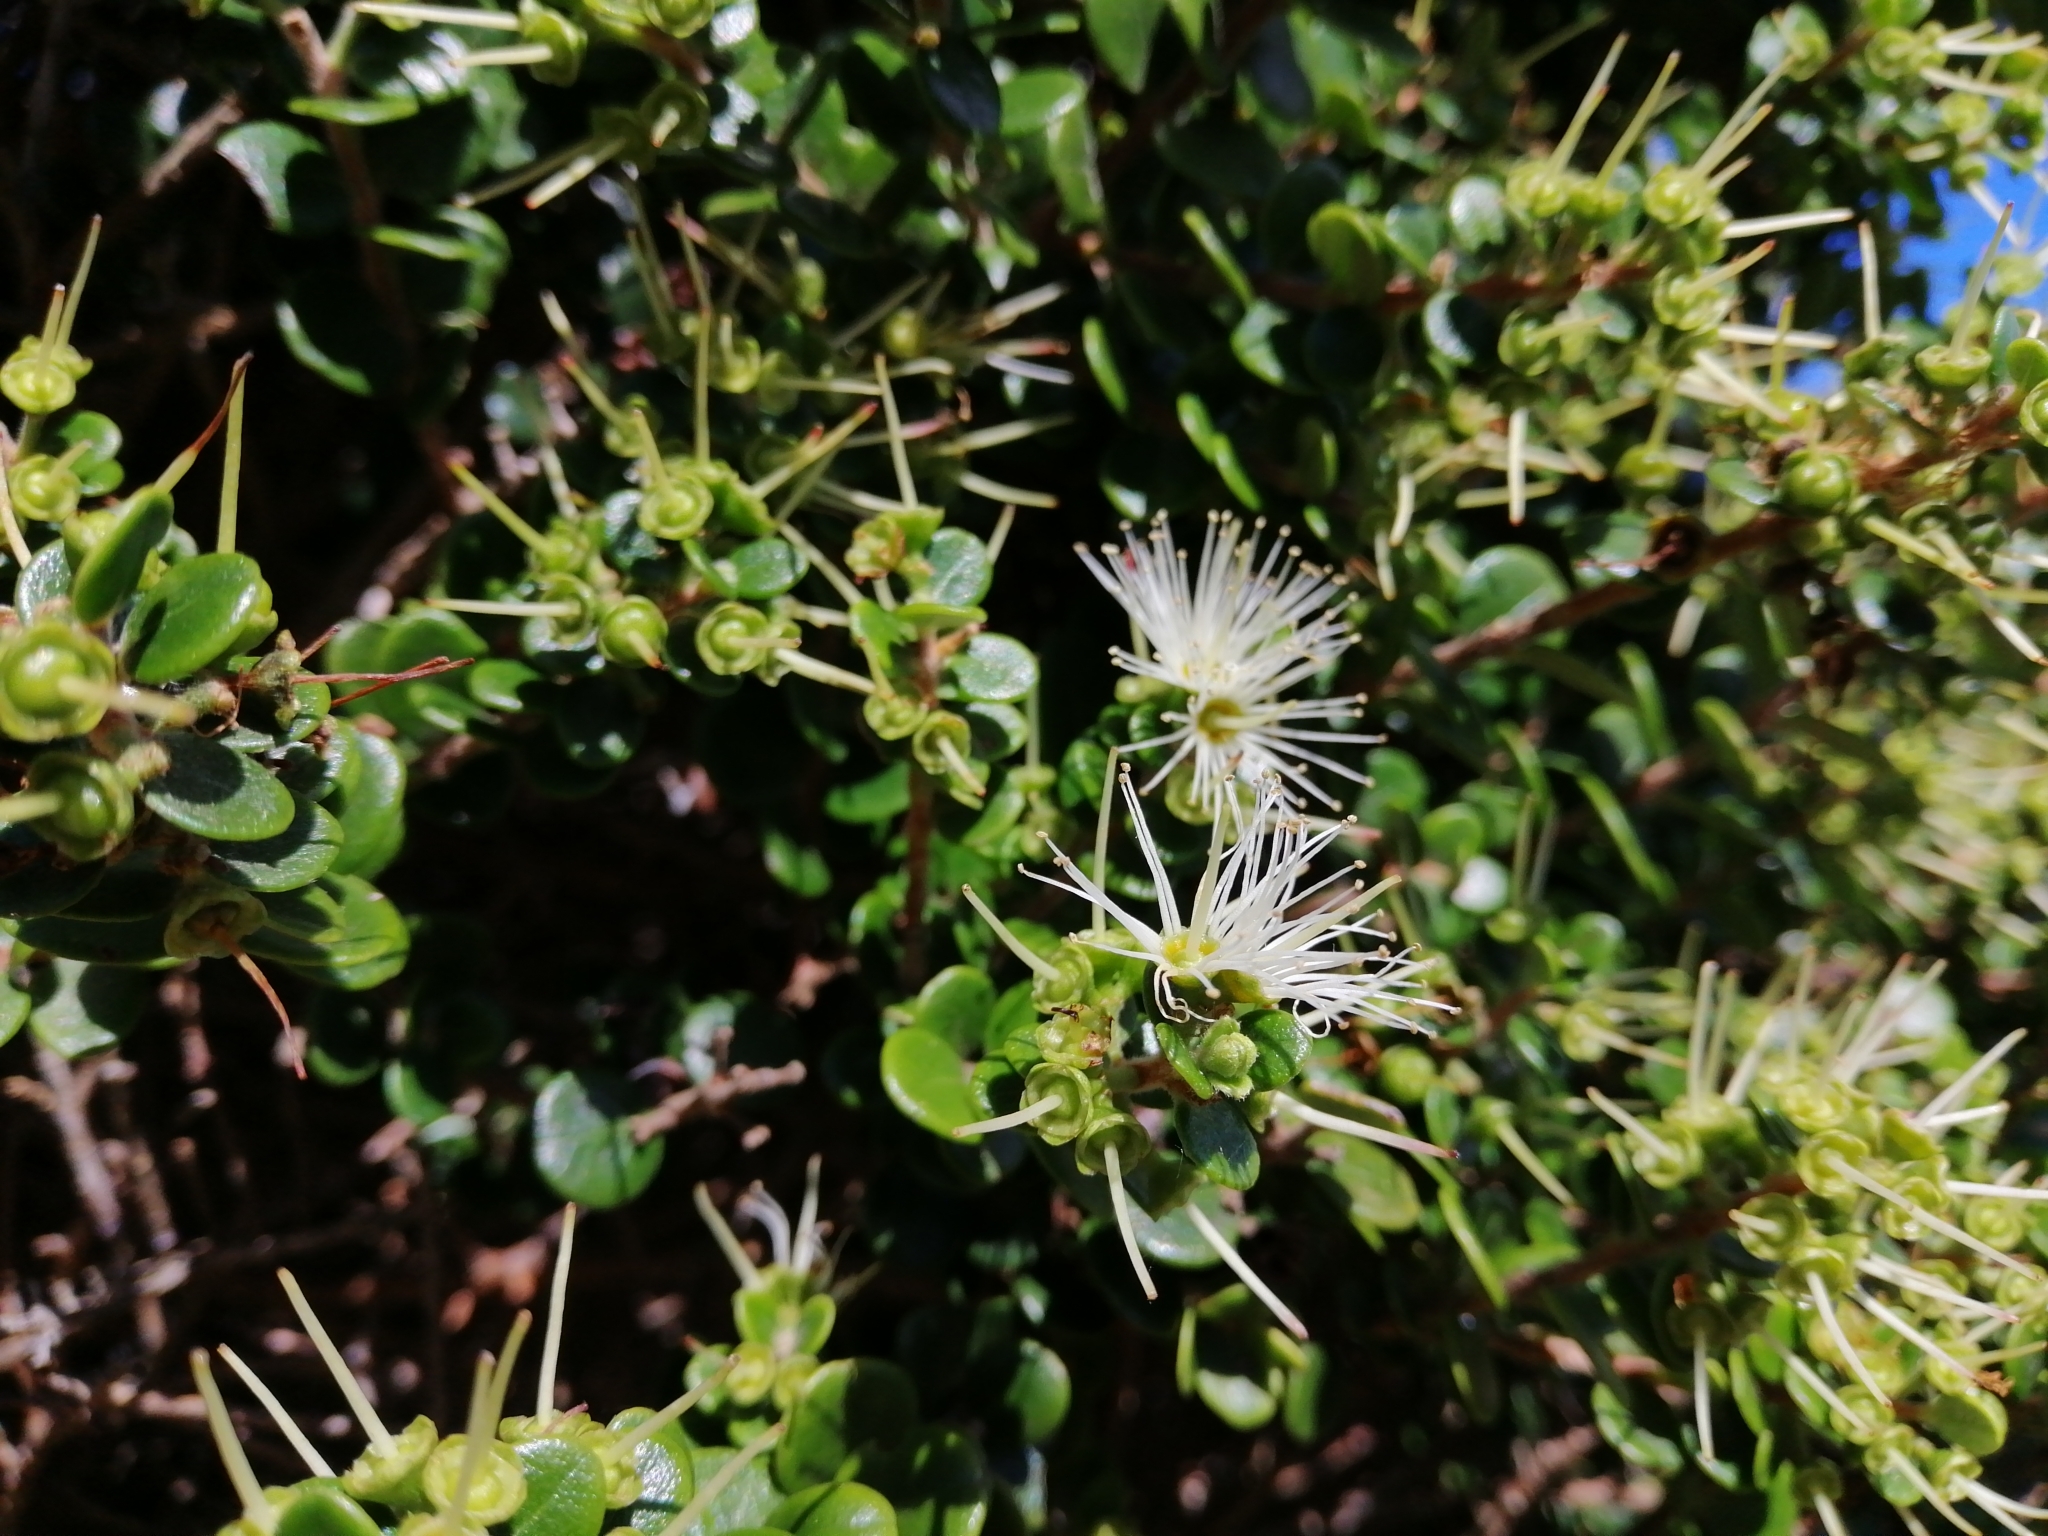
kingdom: Plantae
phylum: Tracheophyta
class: Magnoliopsida
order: Myrtales
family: Myrtaceae
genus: Metrosideros
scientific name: Metrosideros perforata
